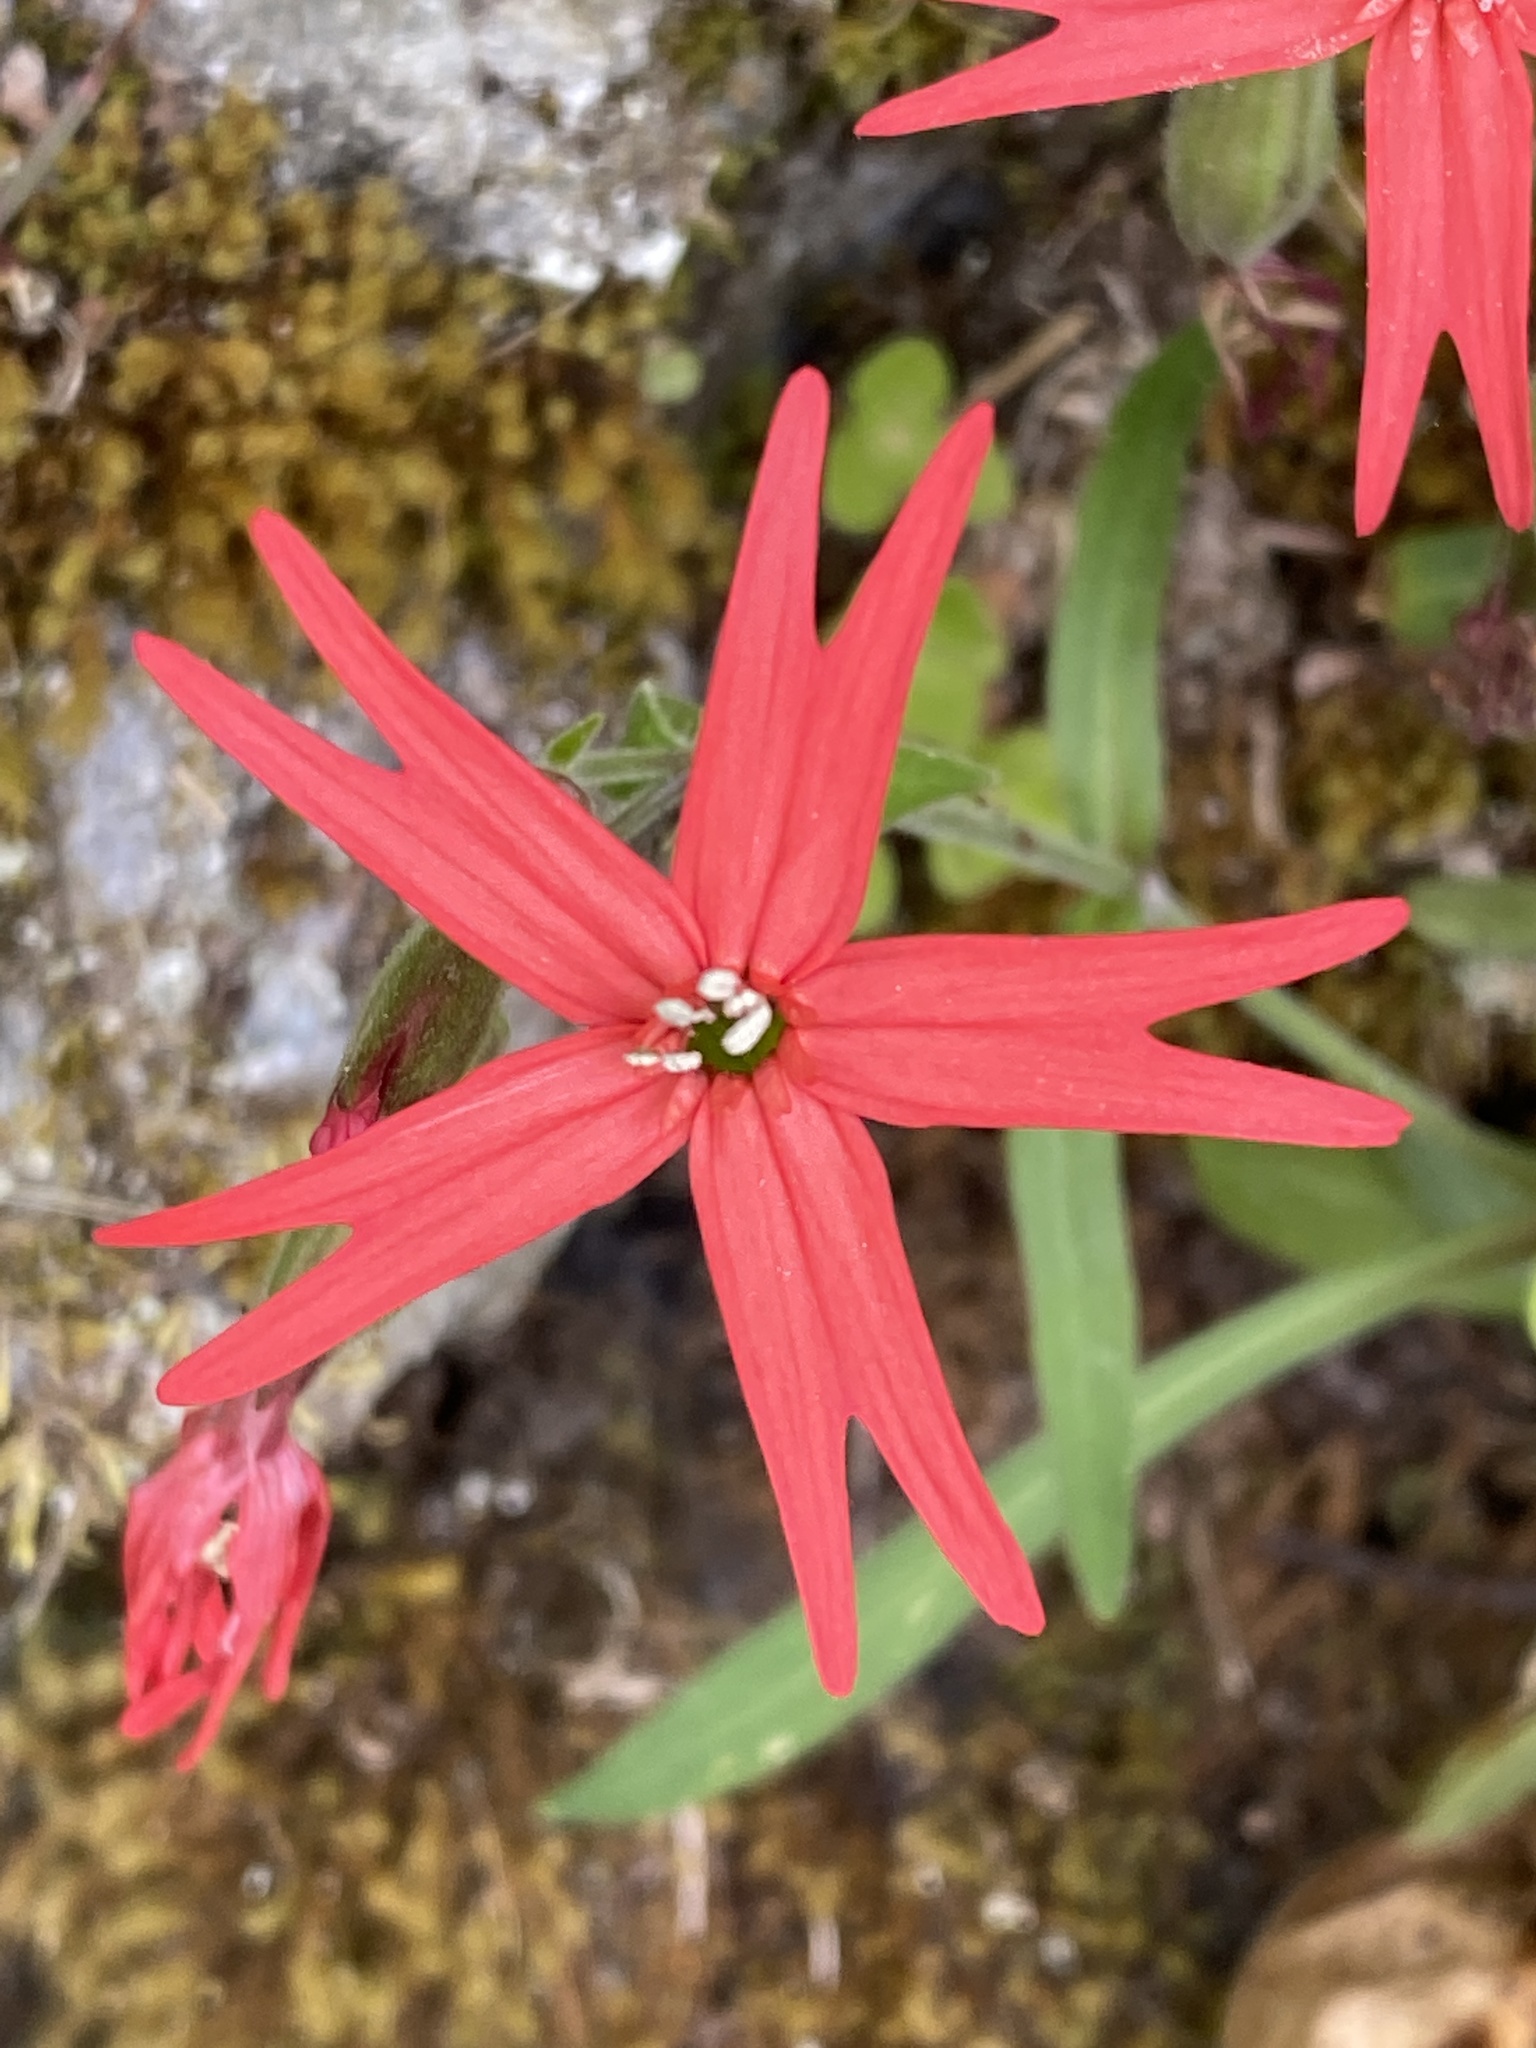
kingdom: Plantae
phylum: Tracheophyta
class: Magnoliopsida
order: Caryophyllales
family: Caryophyllaceae
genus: Silene
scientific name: Silene virginica
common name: Fire-pink
